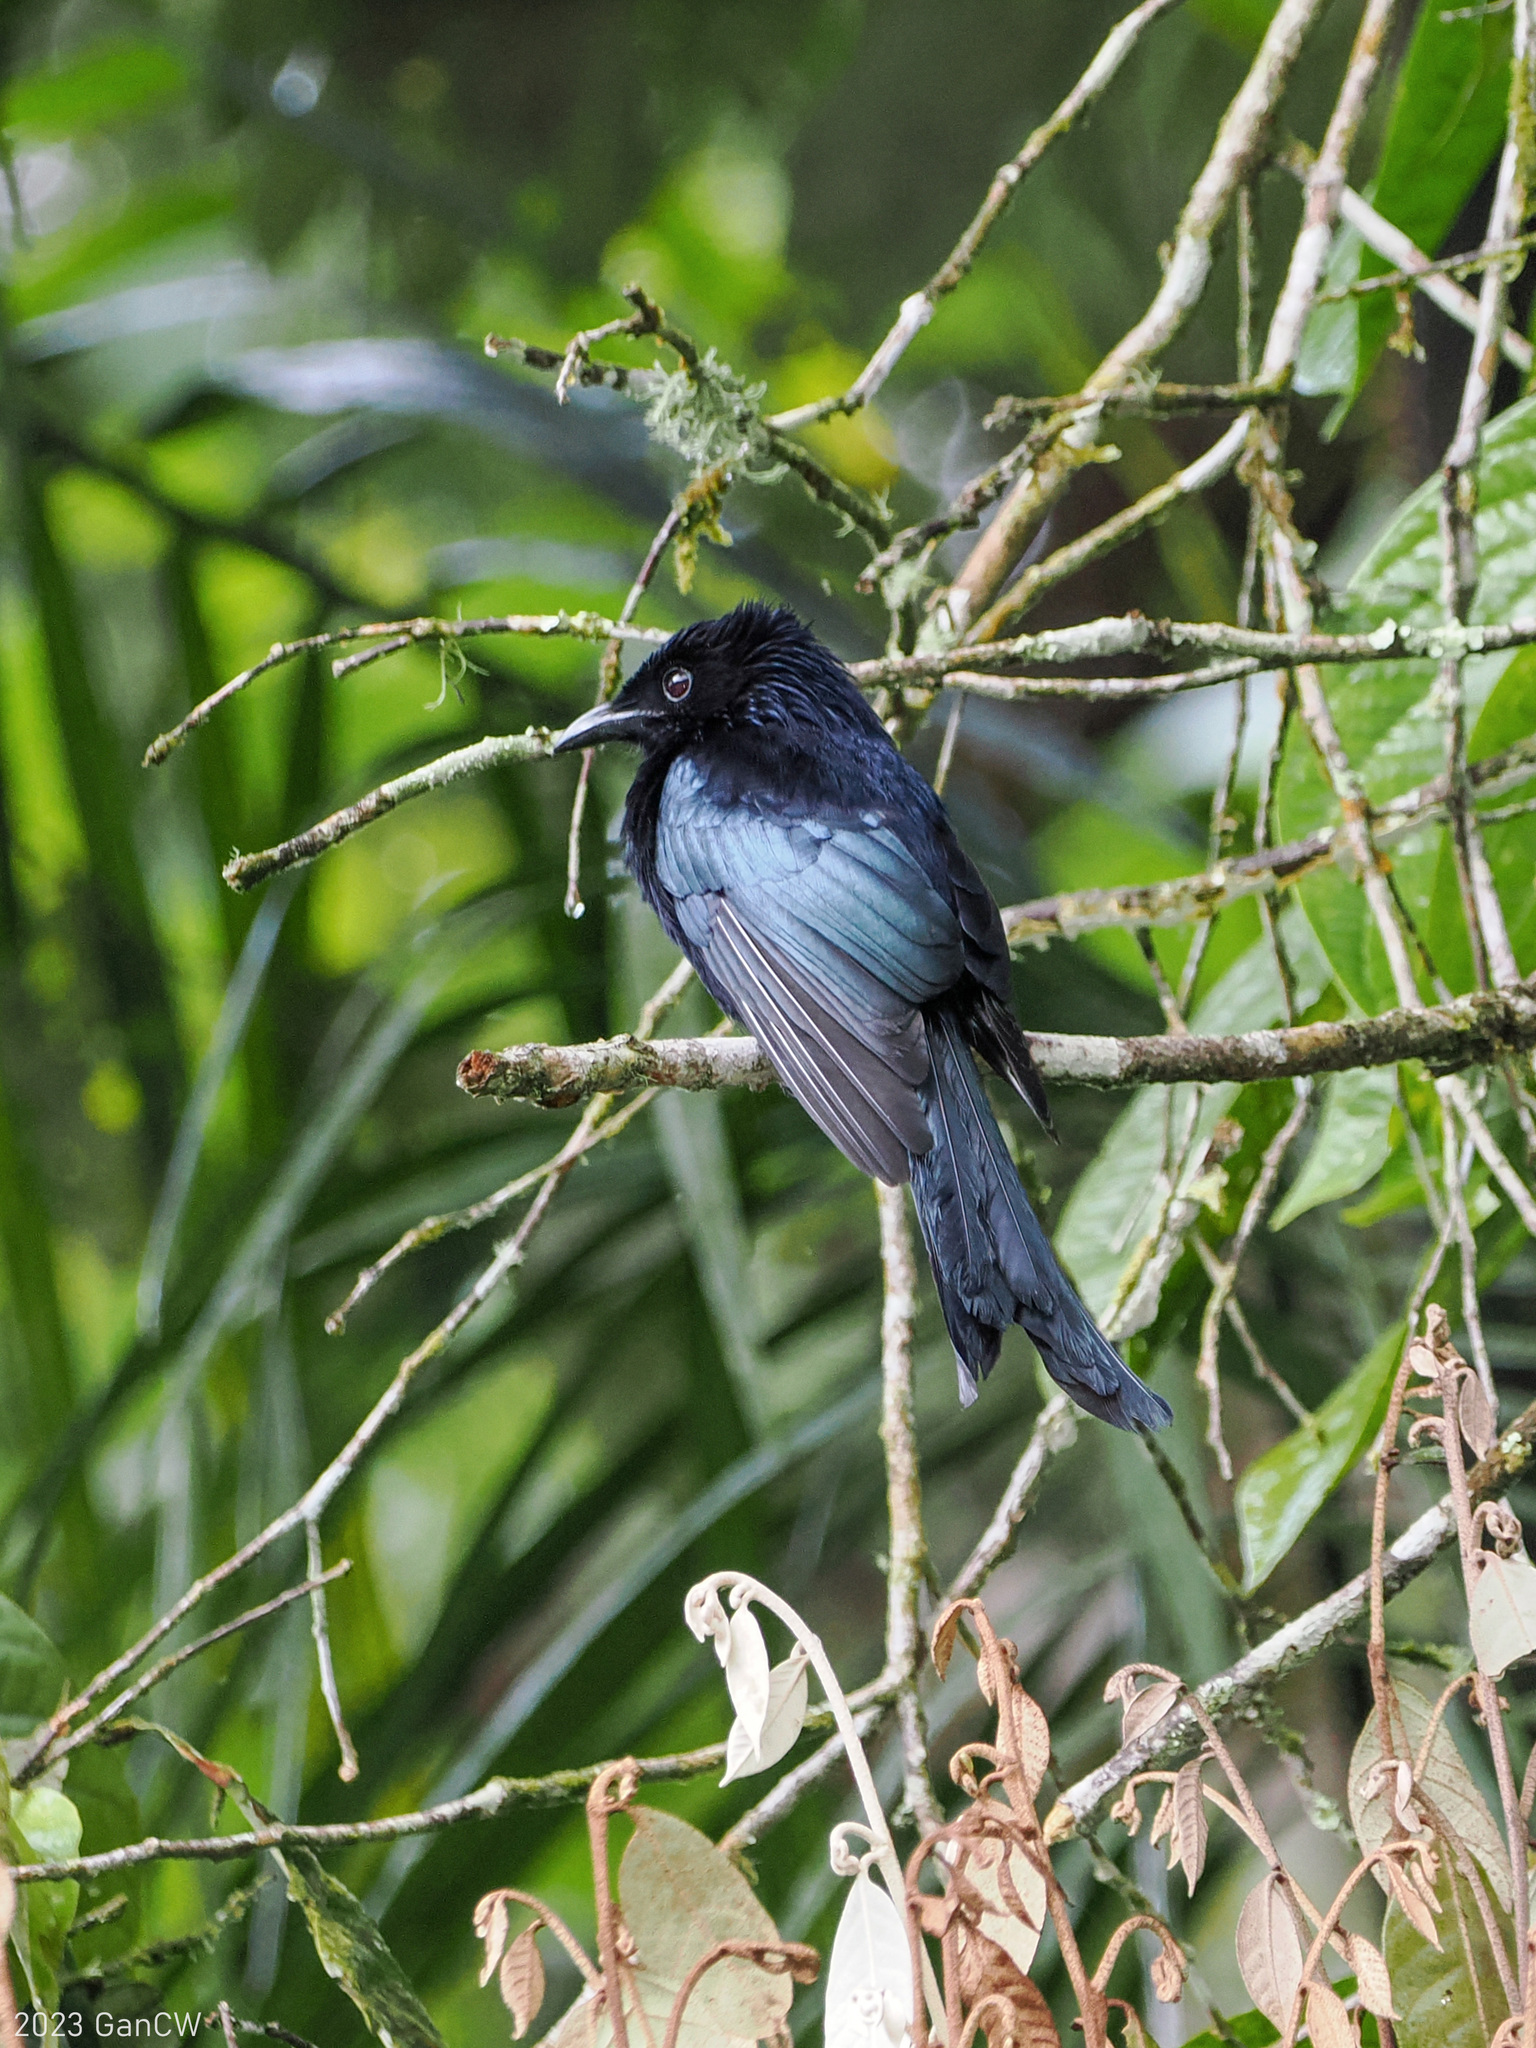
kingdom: Animalia
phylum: Chordata
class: Aves
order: Passeriformes
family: Dicruridae
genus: Dicrurus
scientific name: Dicrurus montanus
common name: Sulawesi drongo
